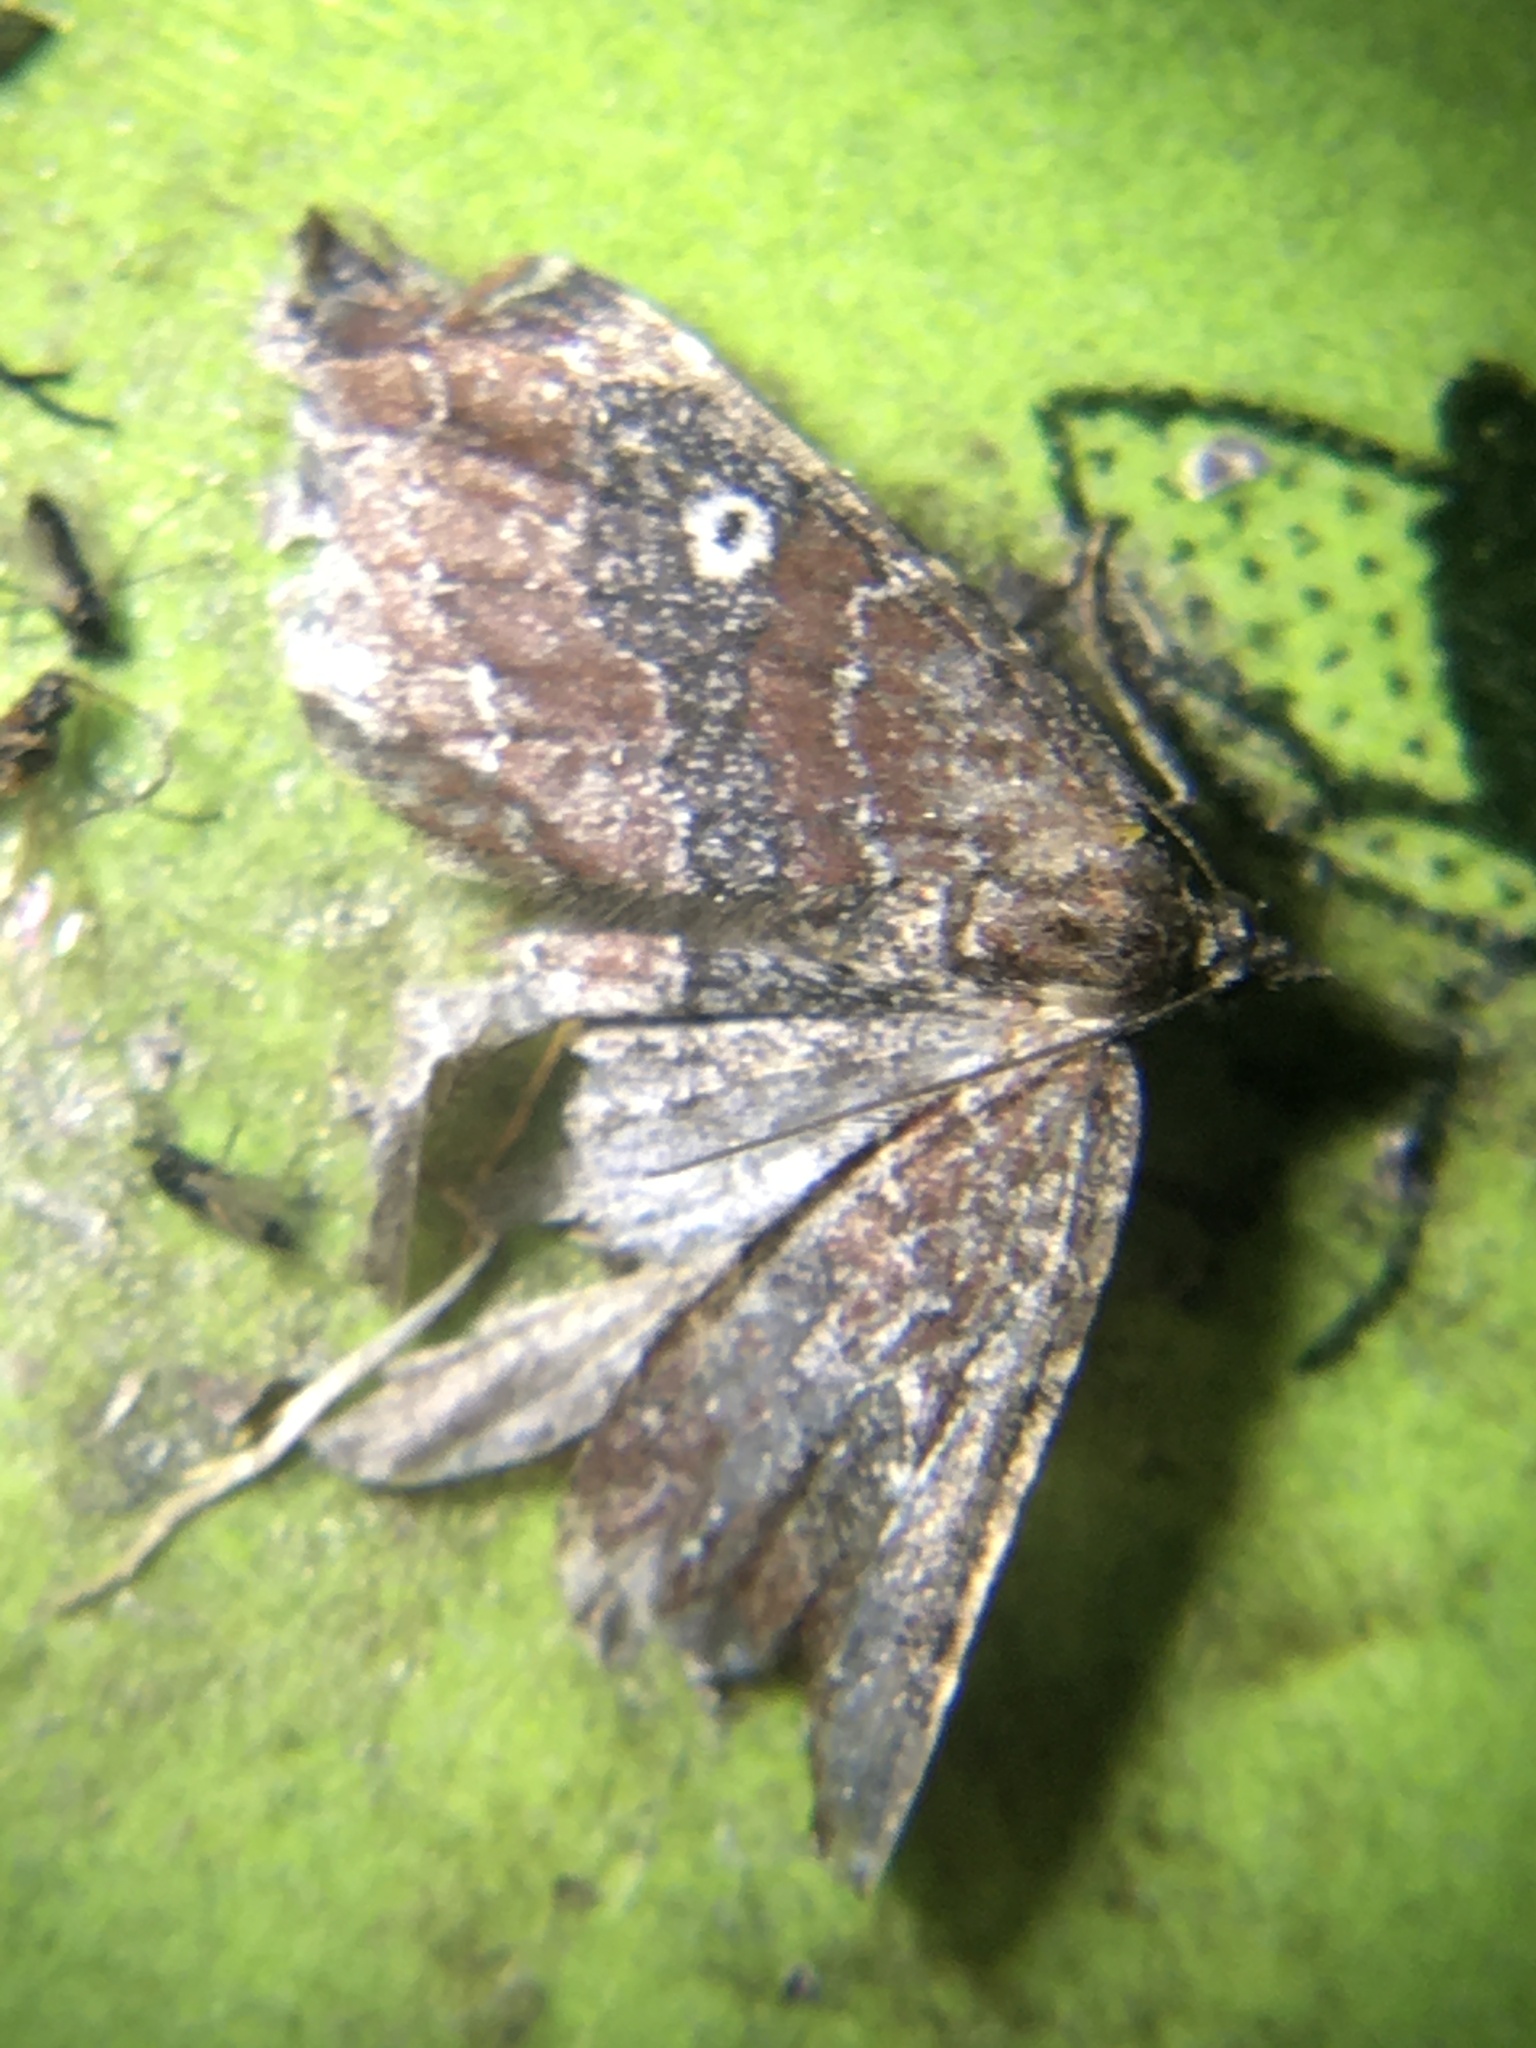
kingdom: Animalia
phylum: Arthropoda
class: Insecta
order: Lepidoptera
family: Geometridae
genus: Orthonama
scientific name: Orthonama obstipata
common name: The gem
